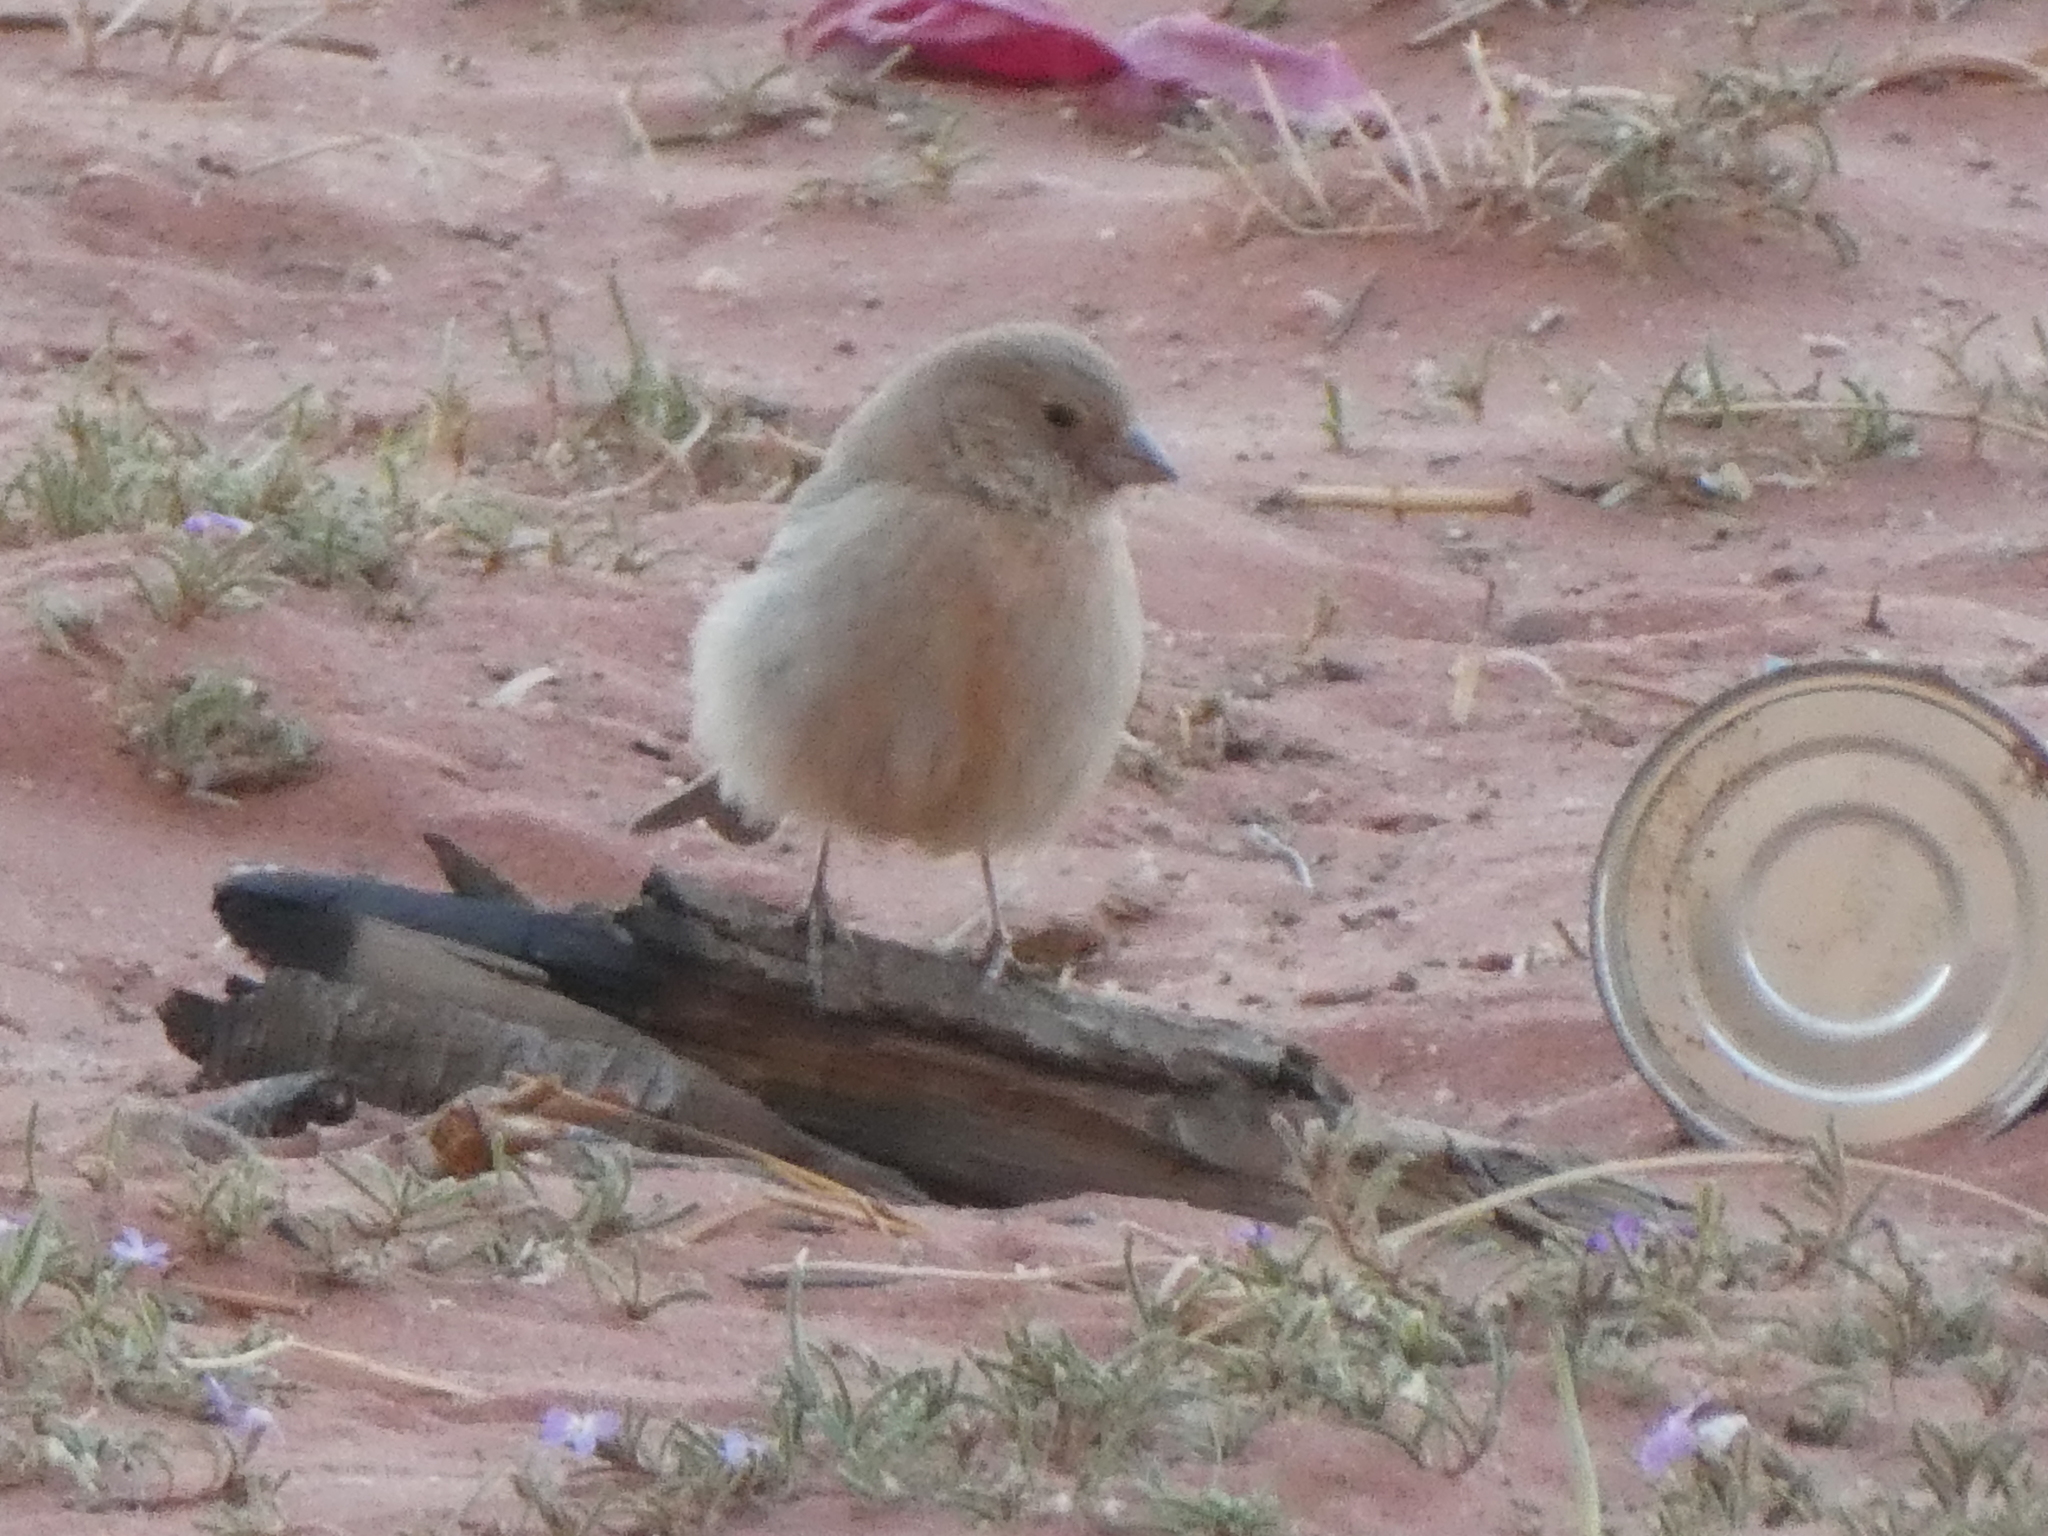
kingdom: Animalia
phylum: Chordata
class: Aves
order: Passeriformes
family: Fringillidae
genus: Carpodacus
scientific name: Carpodacus synoicus
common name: Sinai rosefinch
